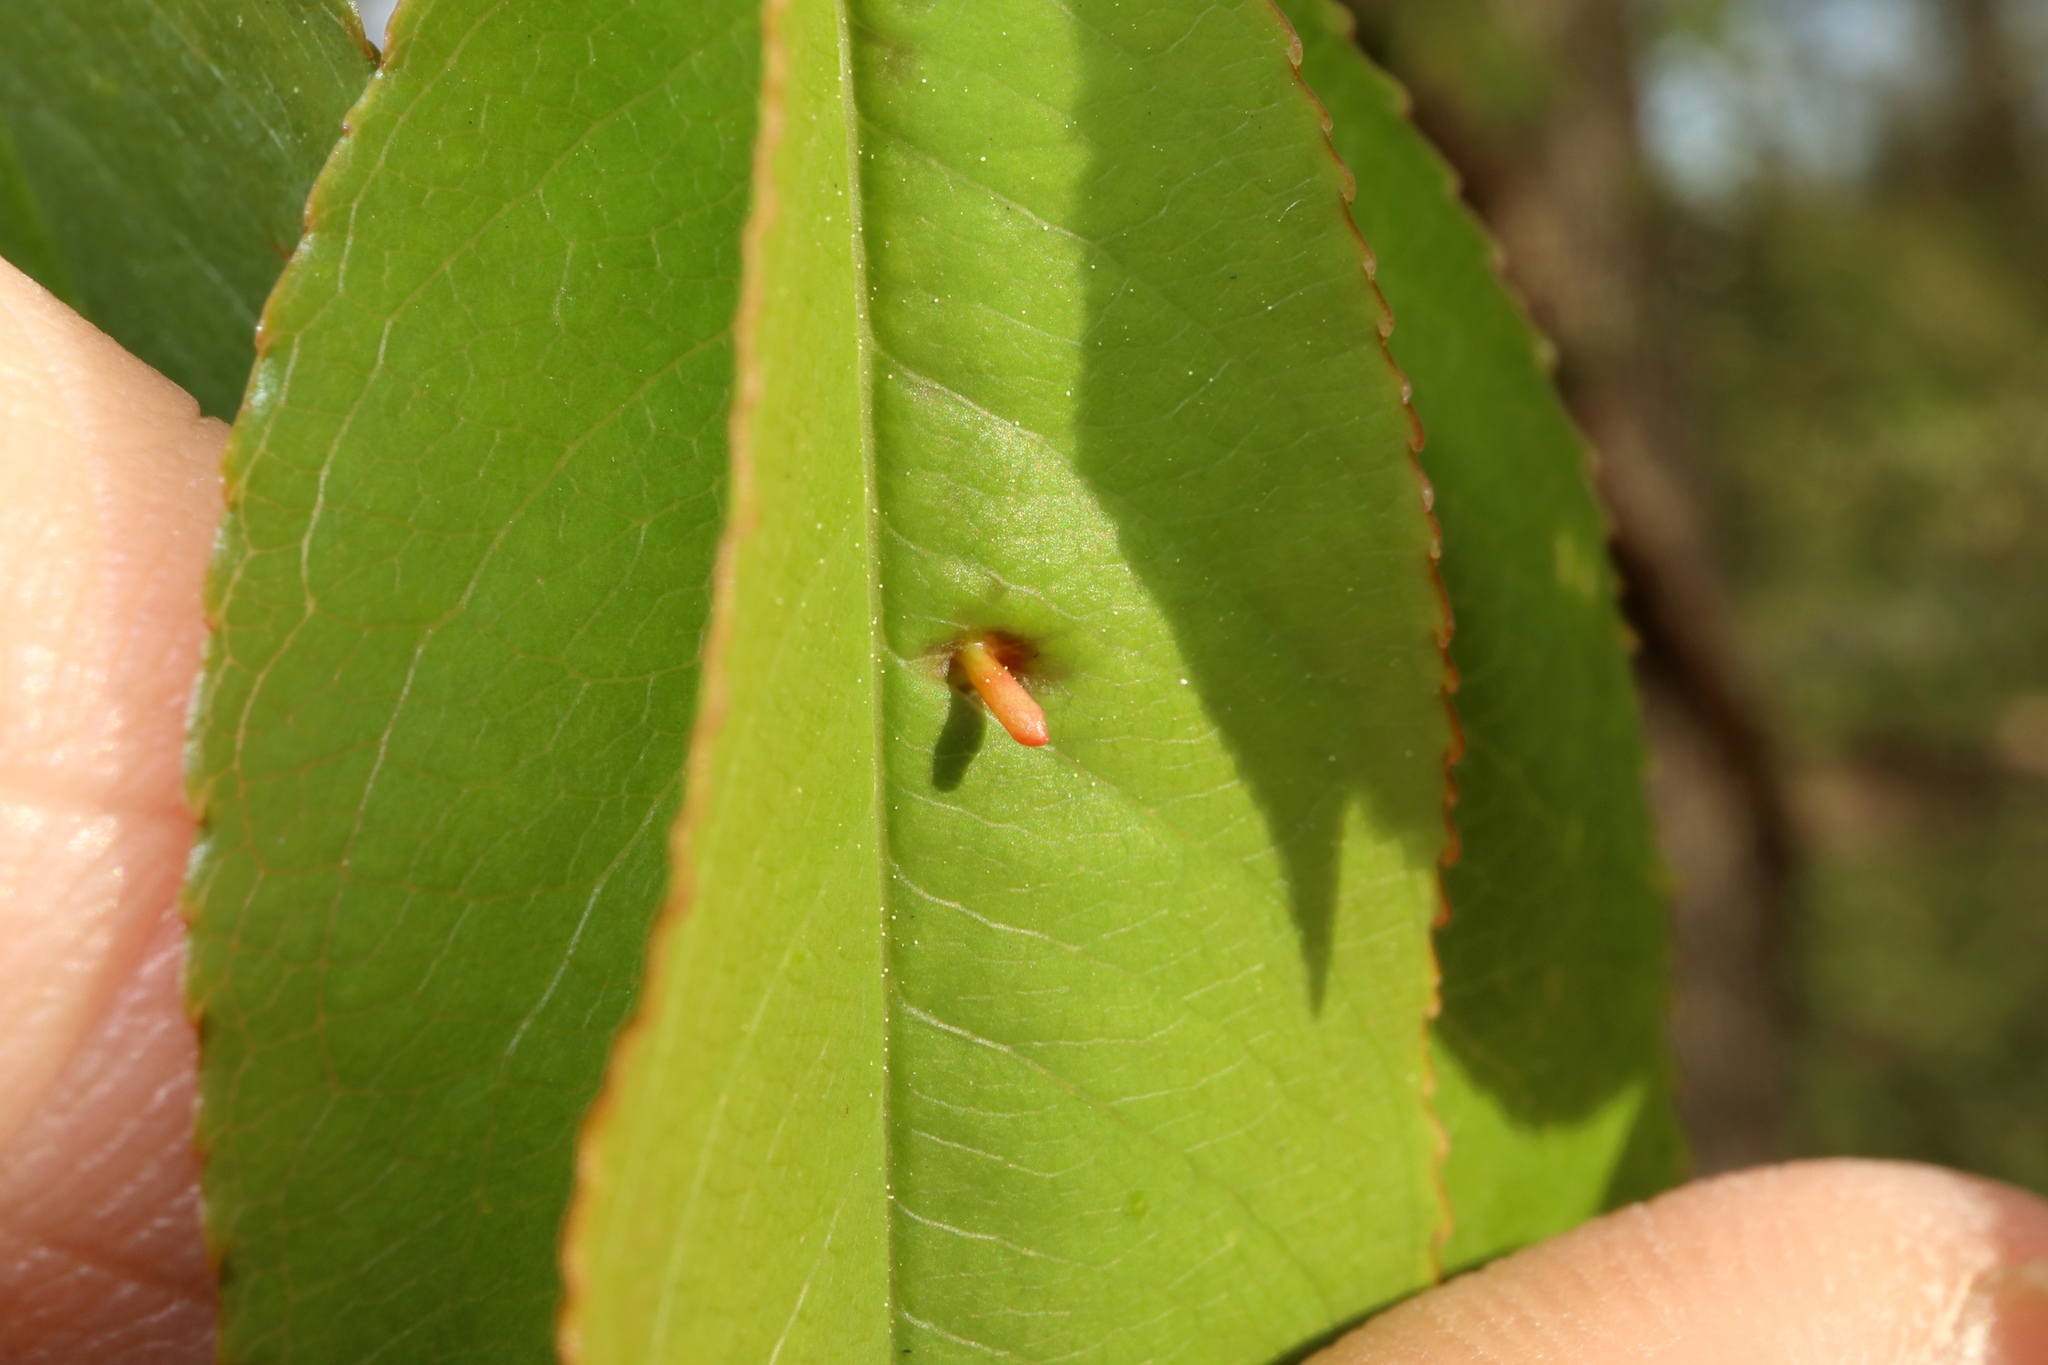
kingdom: Animalia
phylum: Arthropoda
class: Arachnida
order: Trombidiformes
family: Eriophyidae
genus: Eriophyes
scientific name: Eriophyes
